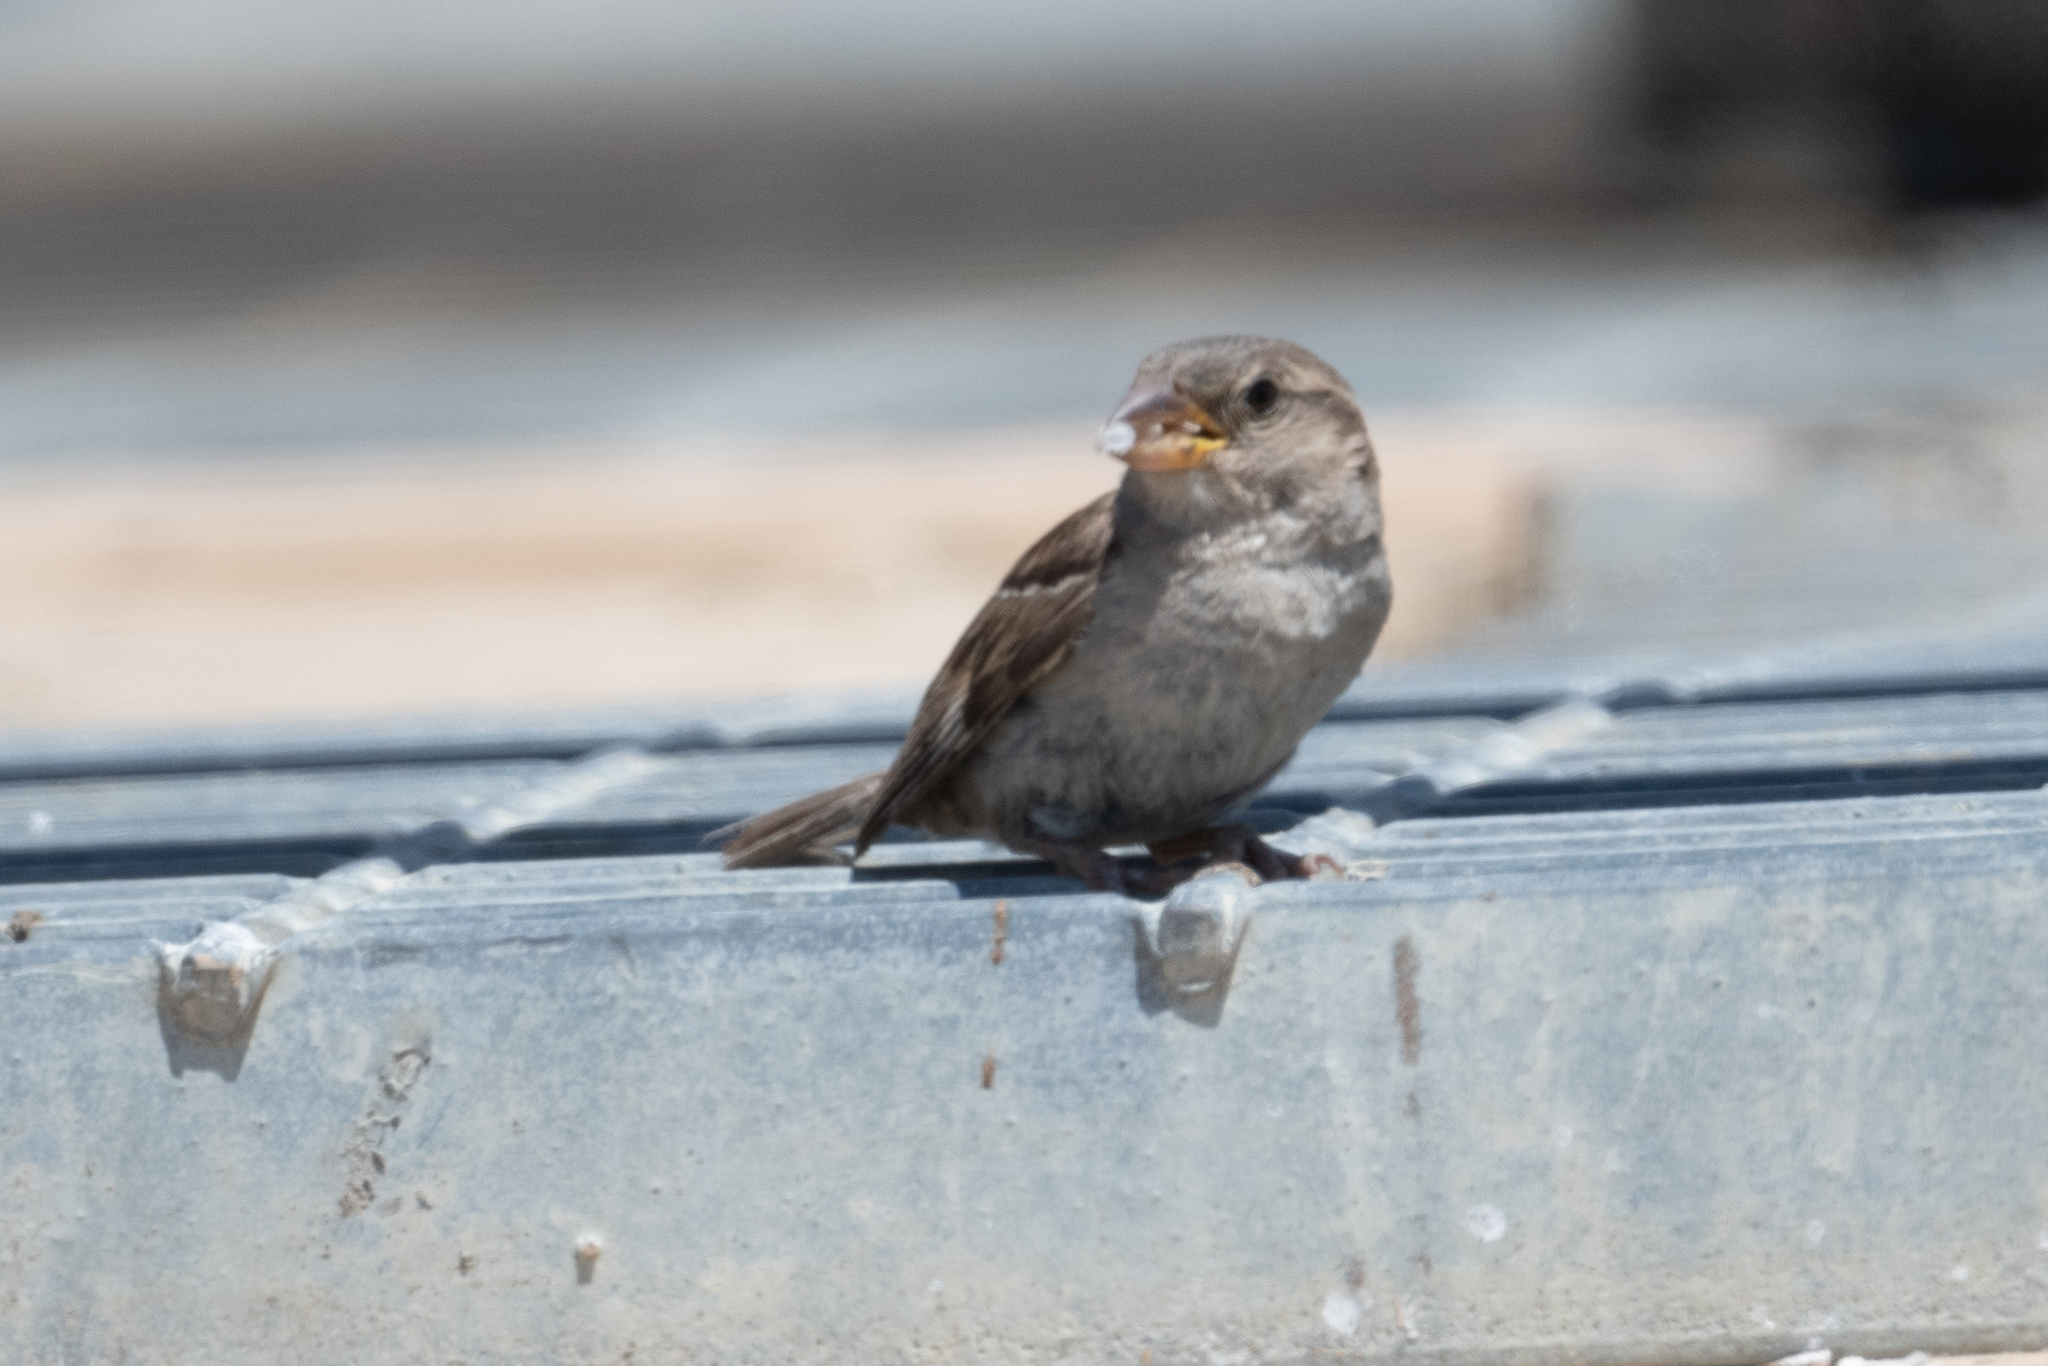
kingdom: Animalia
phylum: Chordata
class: Aves
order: Passeriformes
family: Passeridae
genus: Passer
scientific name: Passer domesticus
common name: House sparrow
